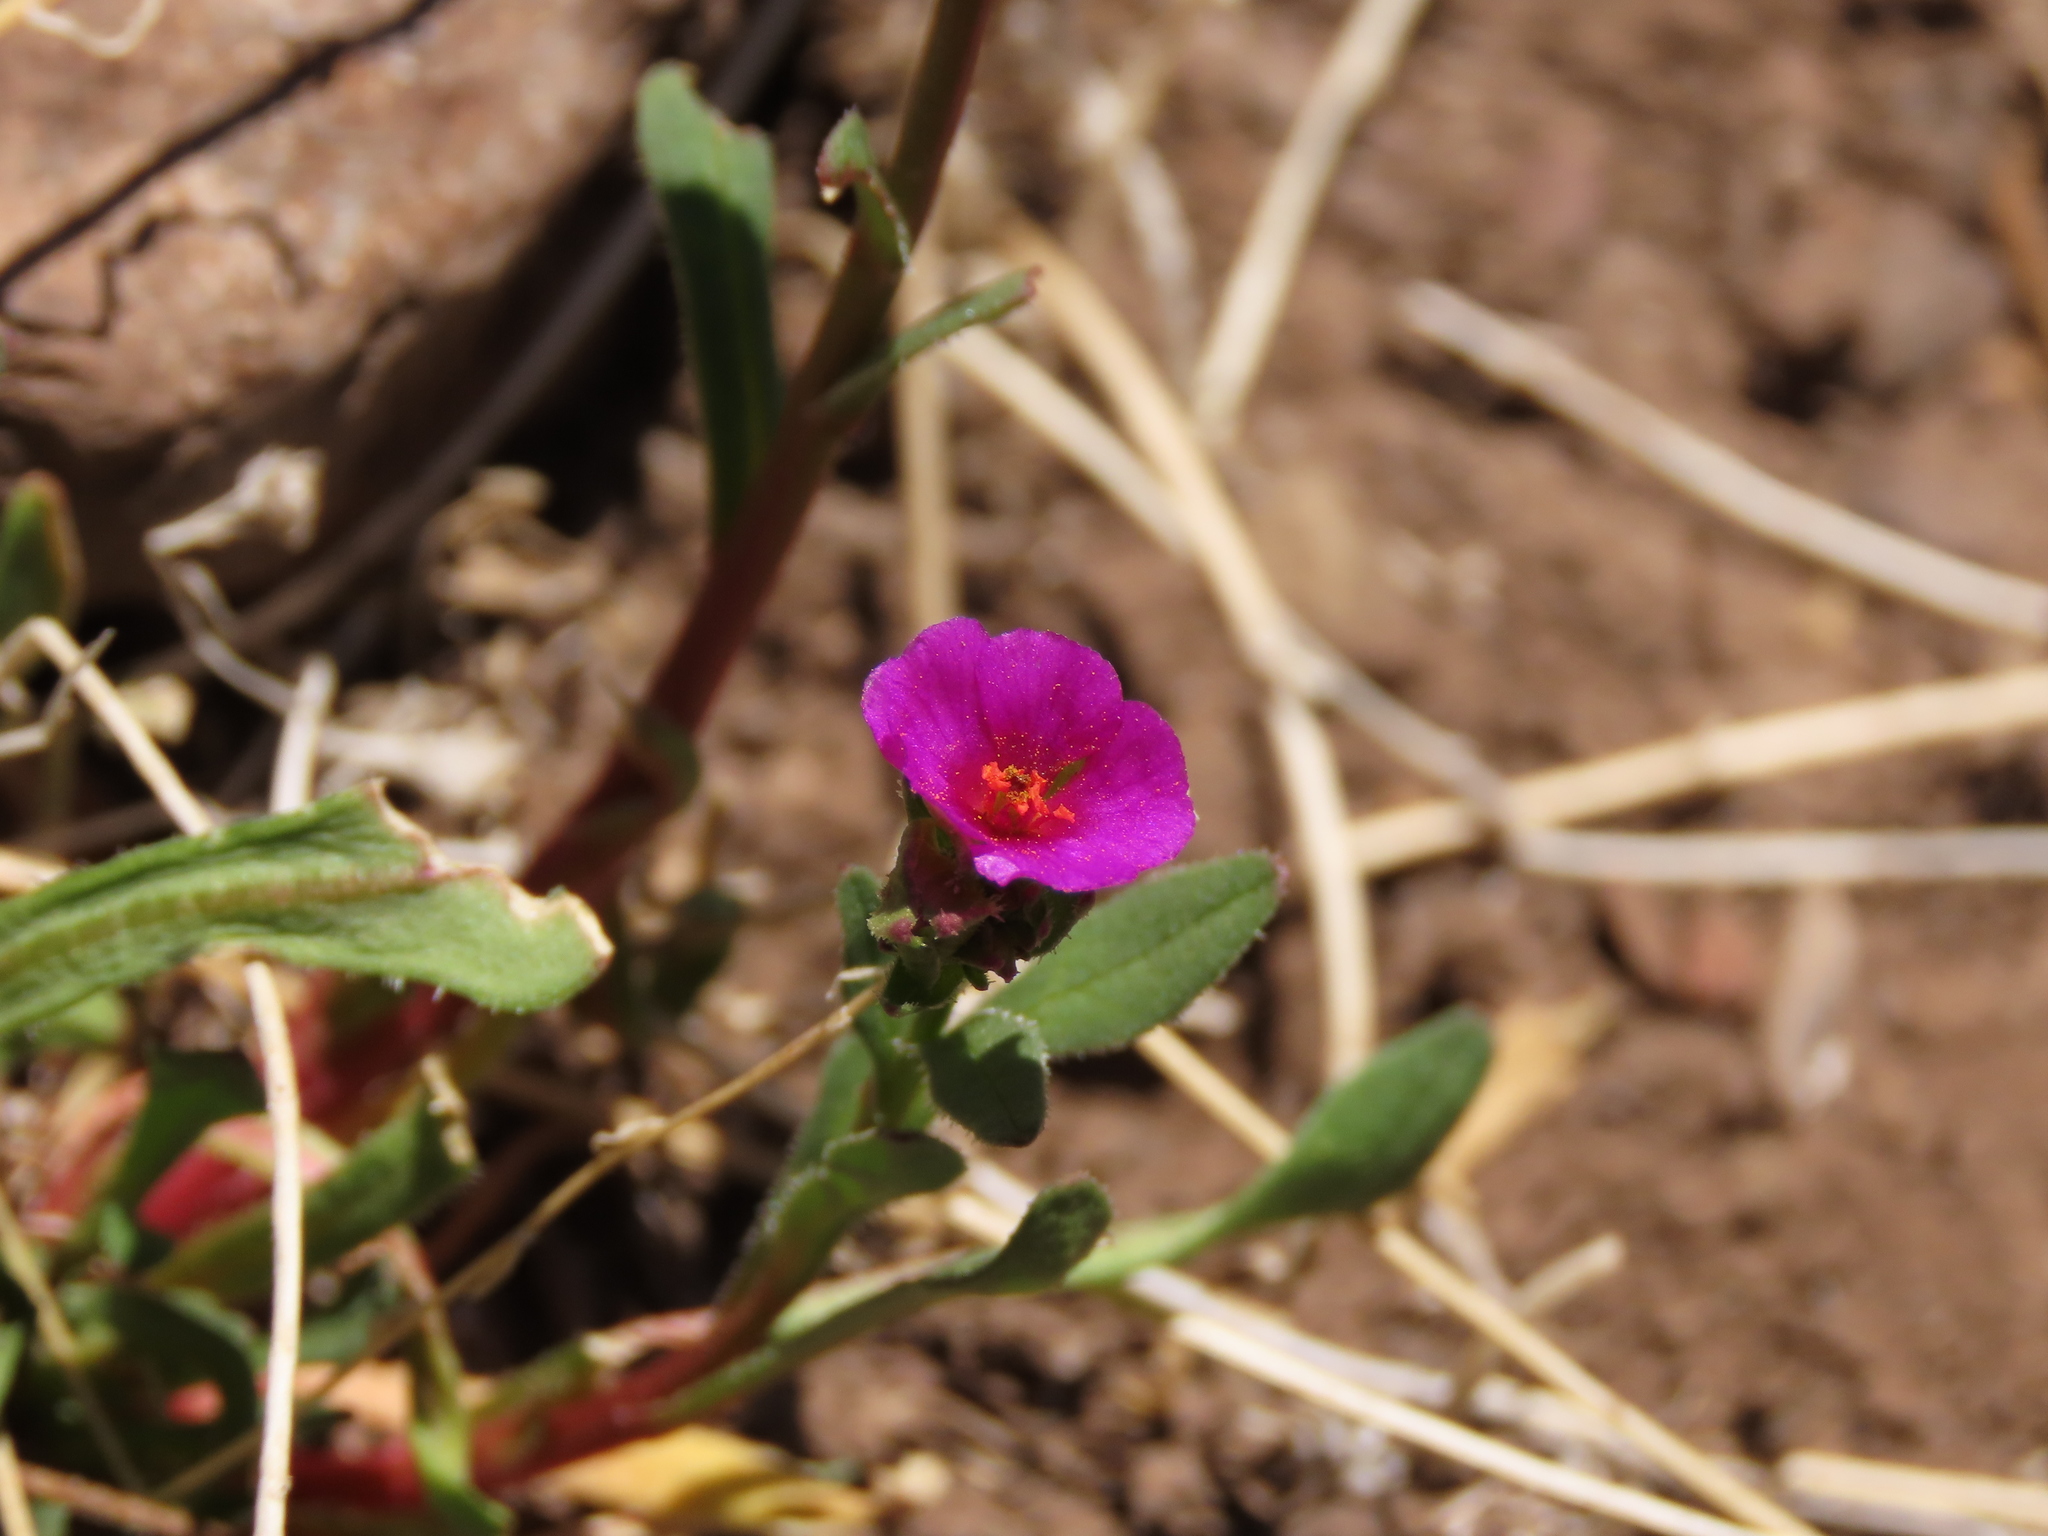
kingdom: Plantae
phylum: Tracheophyta
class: Magnoliopsida
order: Caryophyllales
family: Montiaceae
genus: Calandrinia
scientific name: Calandrinia pilosiuscula
